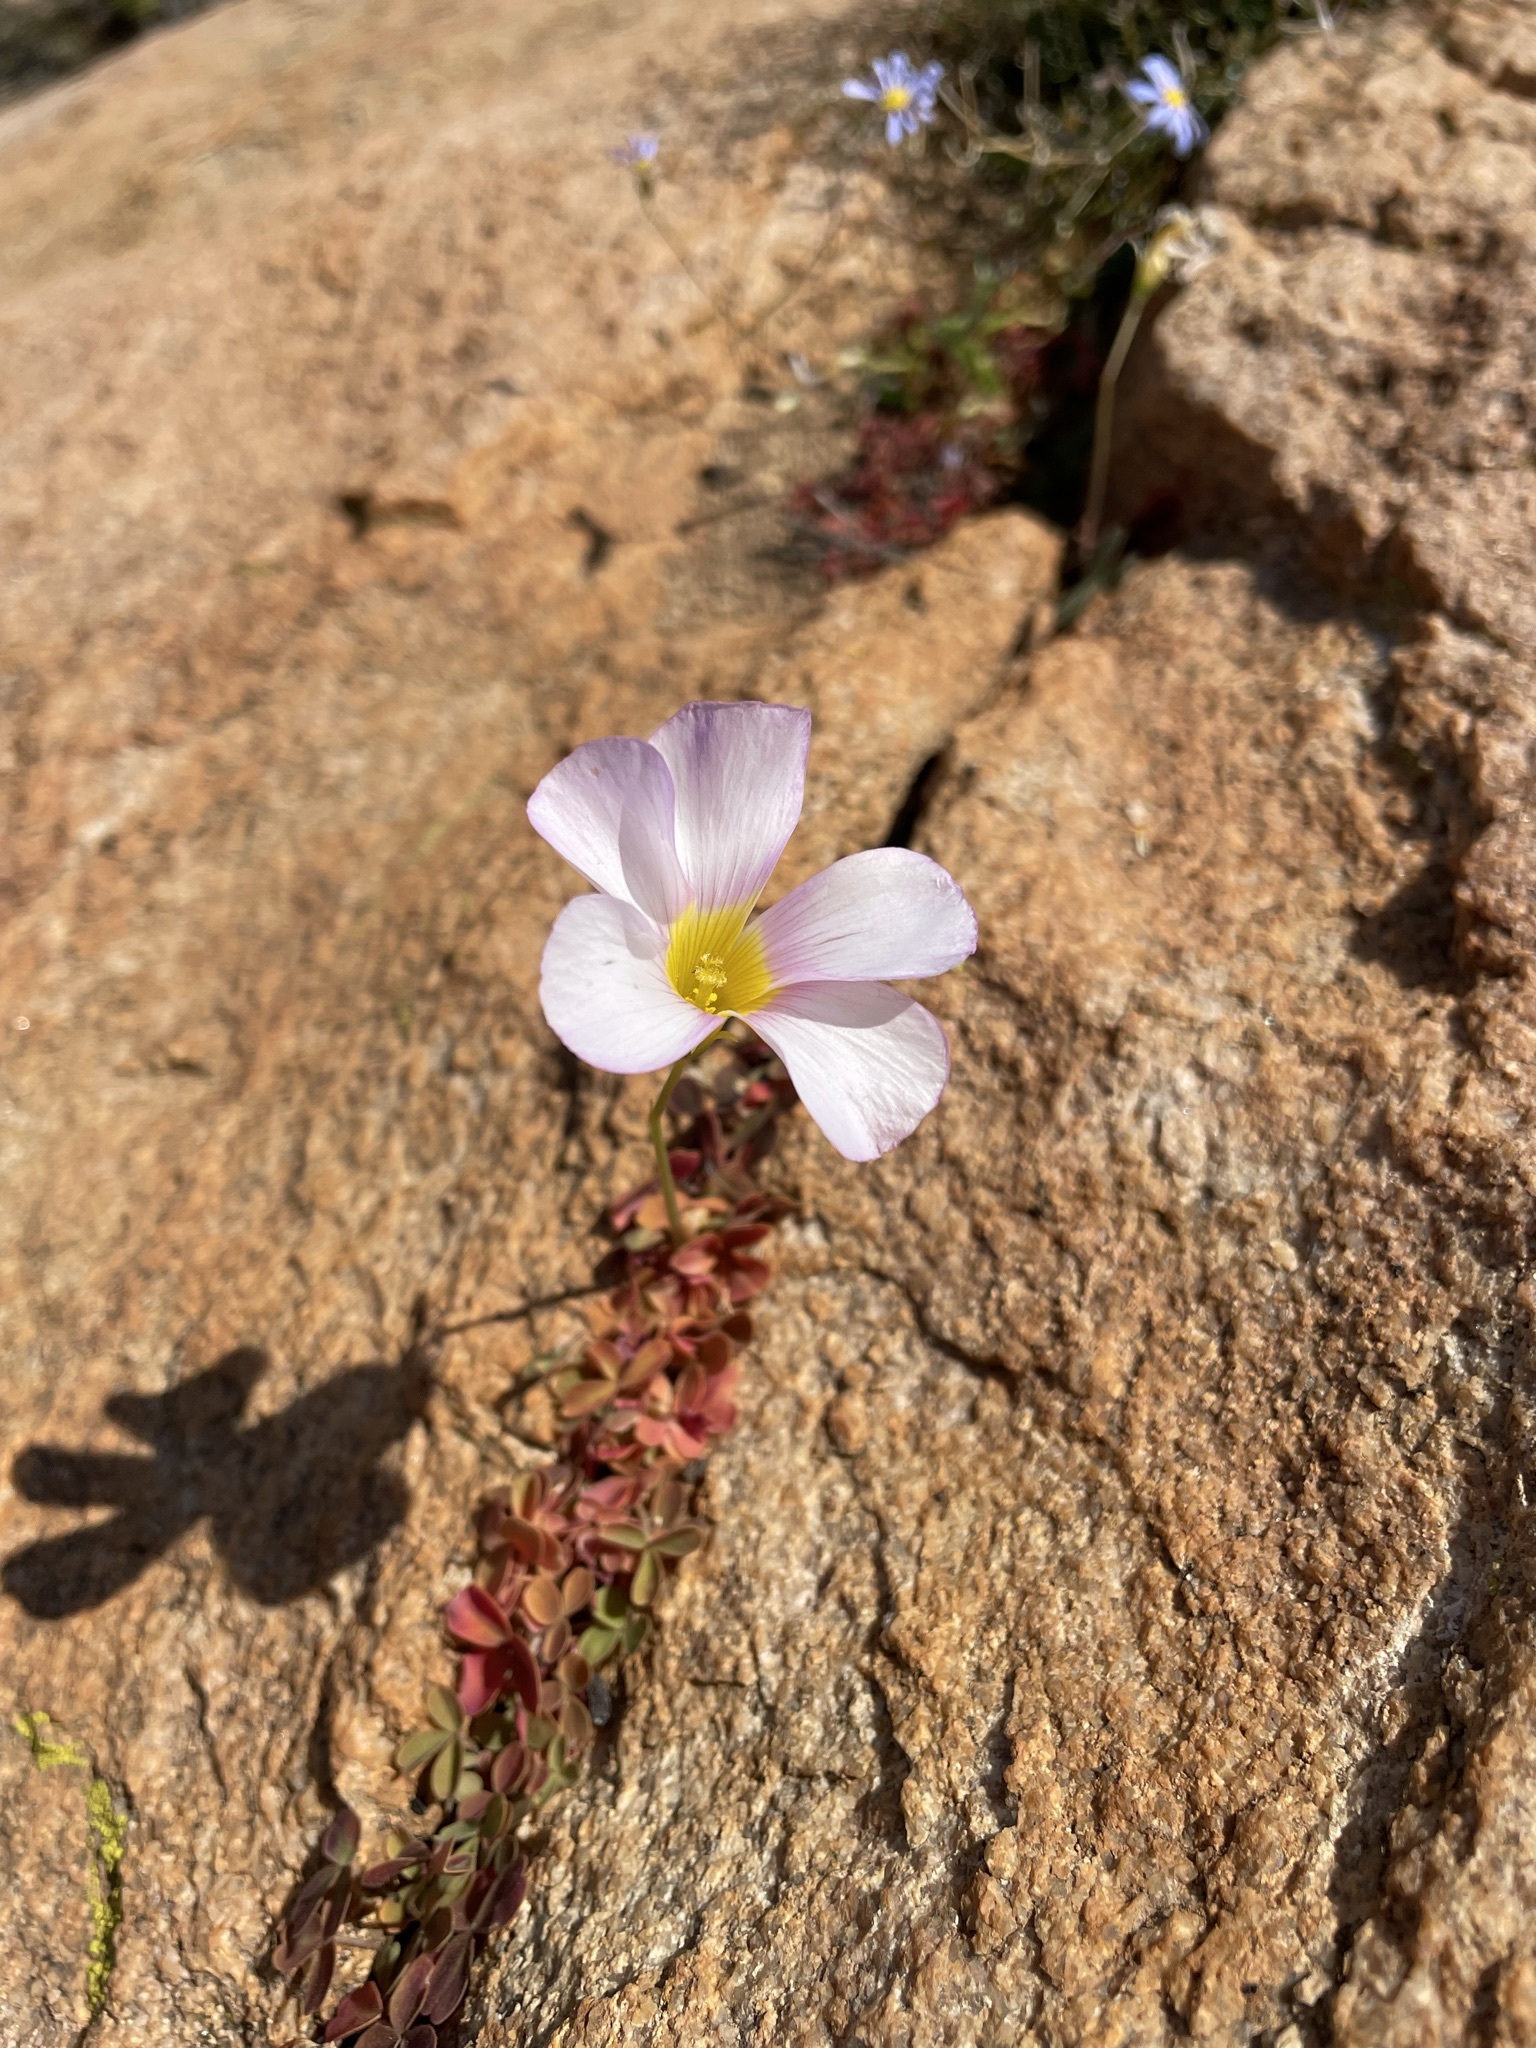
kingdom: Plantae
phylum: Tracheophyta
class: Magnoliopsida
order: Oxalidales
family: Oxalidaceae
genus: Oxalis
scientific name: Oxalis obtusa
